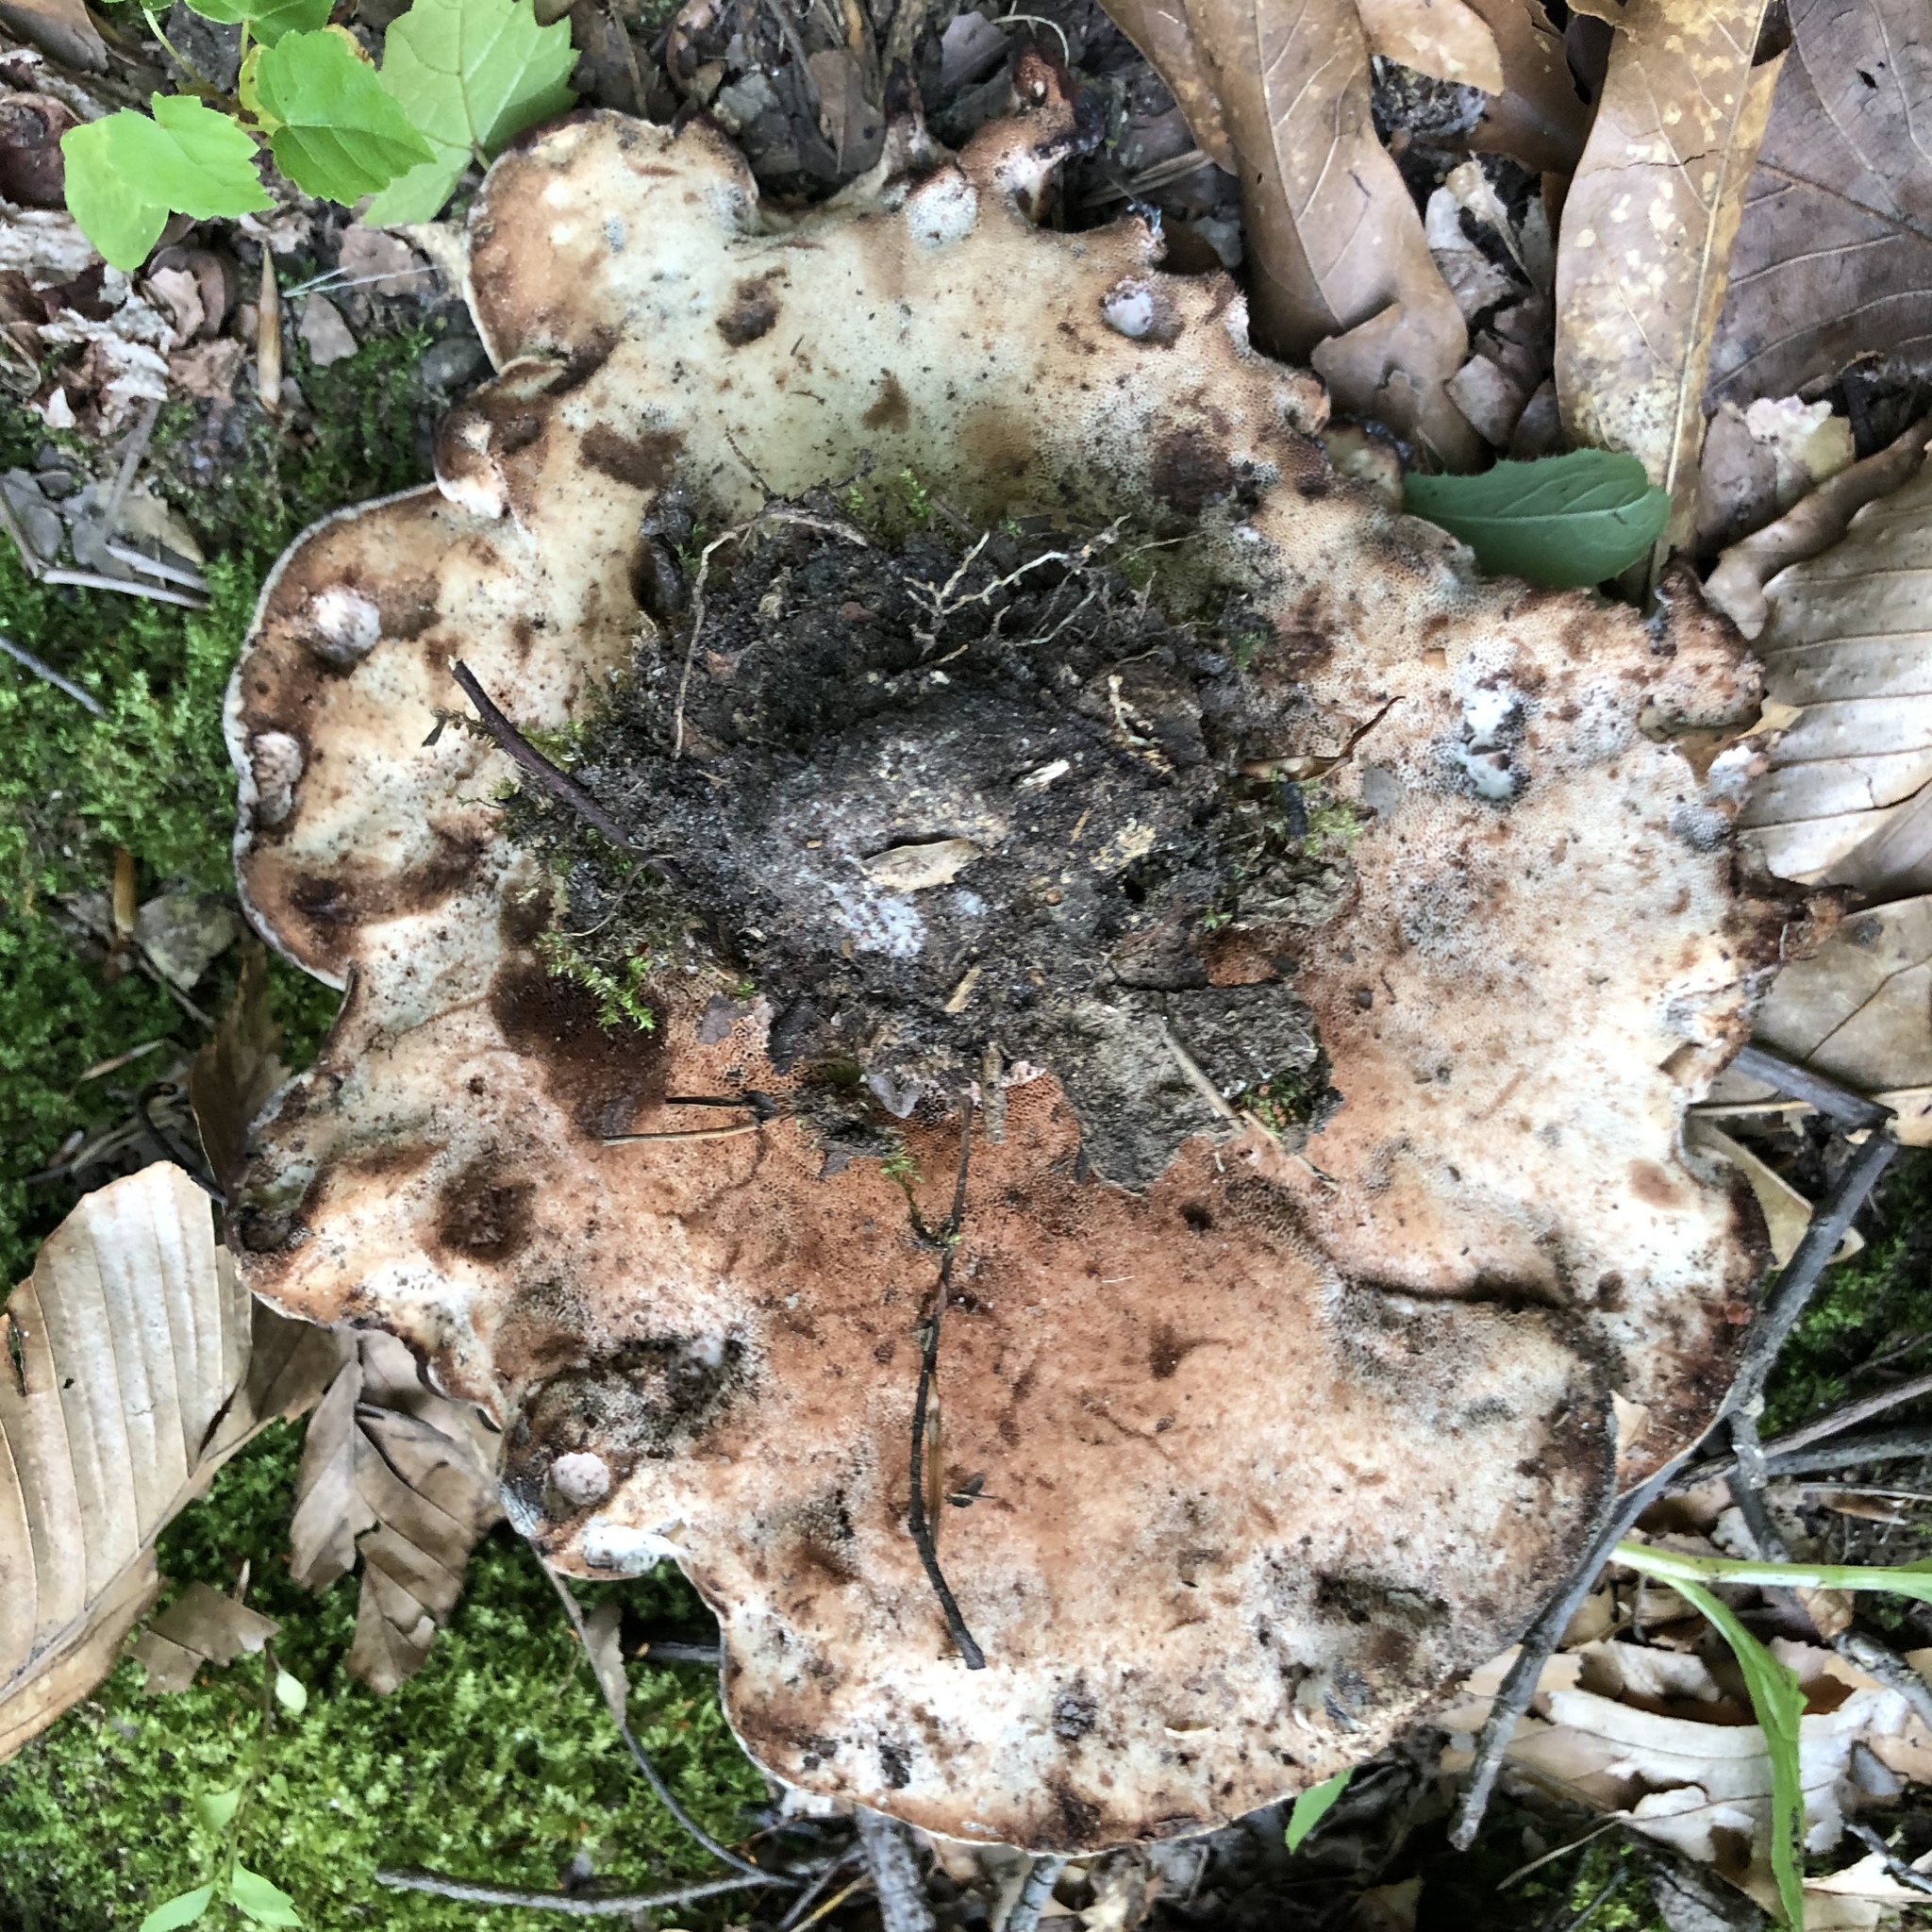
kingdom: Fungi
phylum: Basidiomycota
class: Agaricomycetes
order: Polyporales
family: Laetiporaceae
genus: Berkcurtia
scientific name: Berkcurtia persicina
